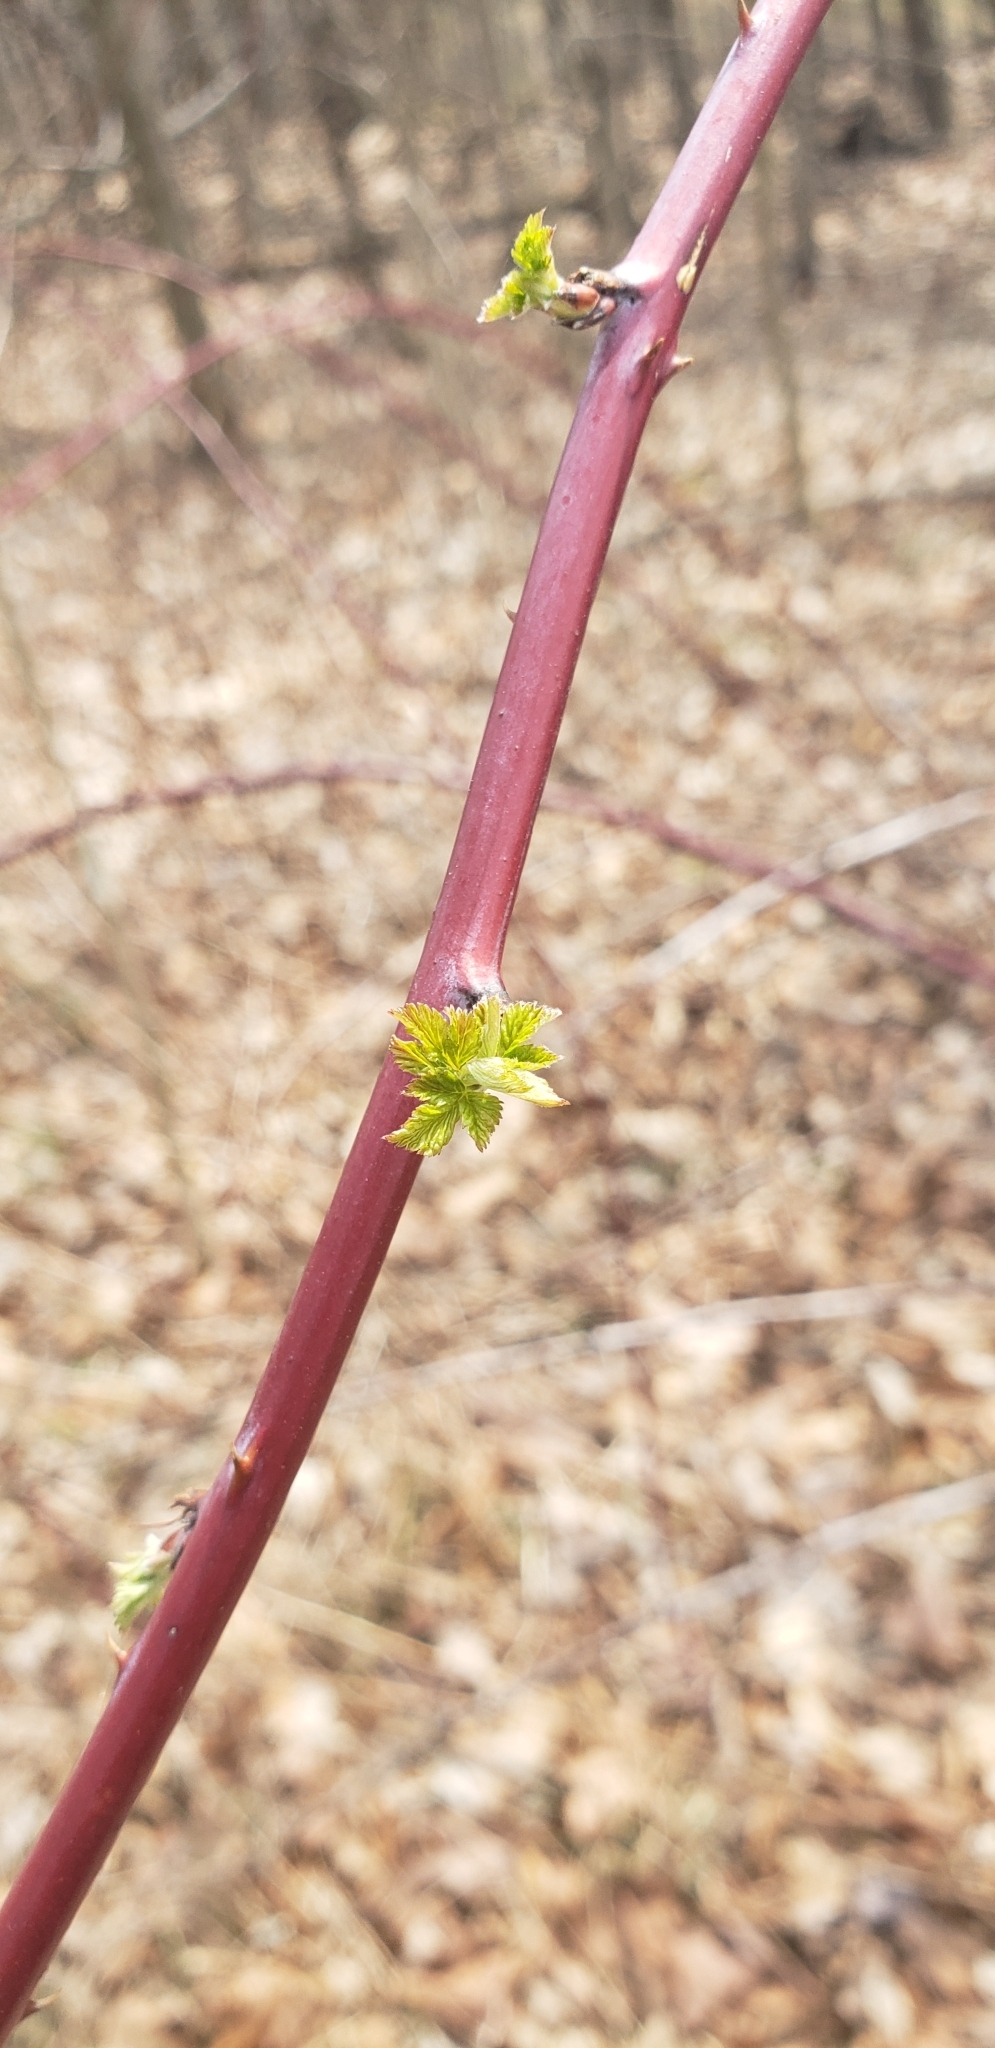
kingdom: Plantae
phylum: Tracheophyta
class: Magnoliopsida
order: Rosales
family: Rosaceae
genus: Rubus
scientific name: Rubus occidentalis
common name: Black raspberry
